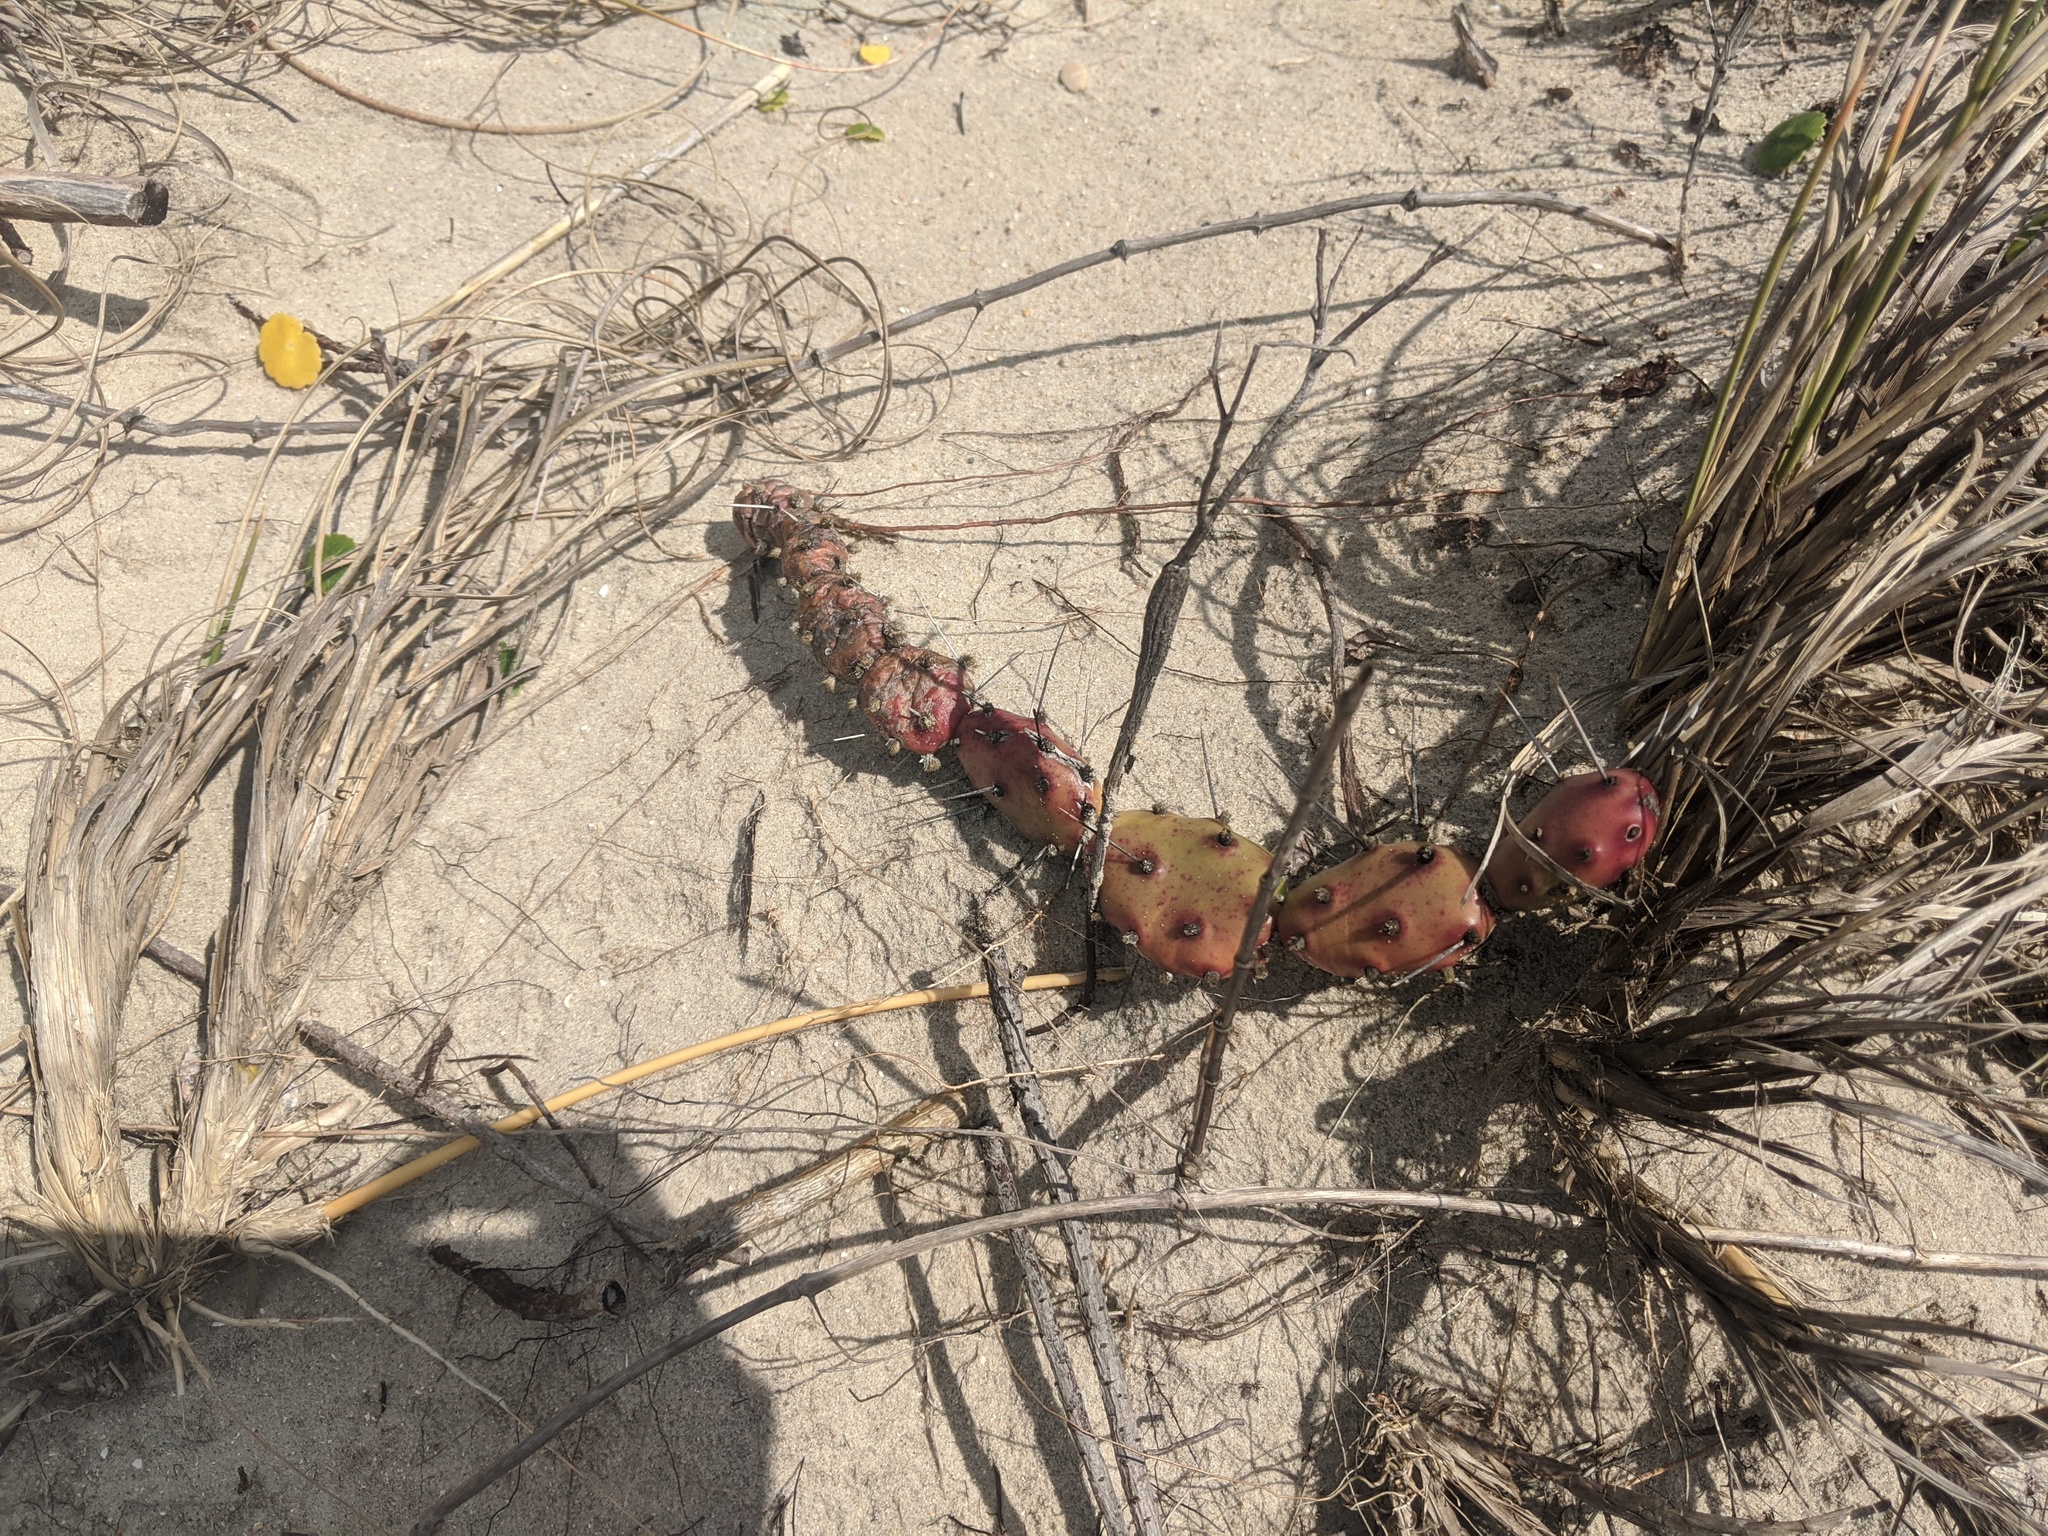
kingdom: Plantae
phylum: Tracheophyta
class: Magnoliopsida
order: Caryophyllales
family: Cactaceae
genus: Opuntia
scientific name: Opuntia drummondii
